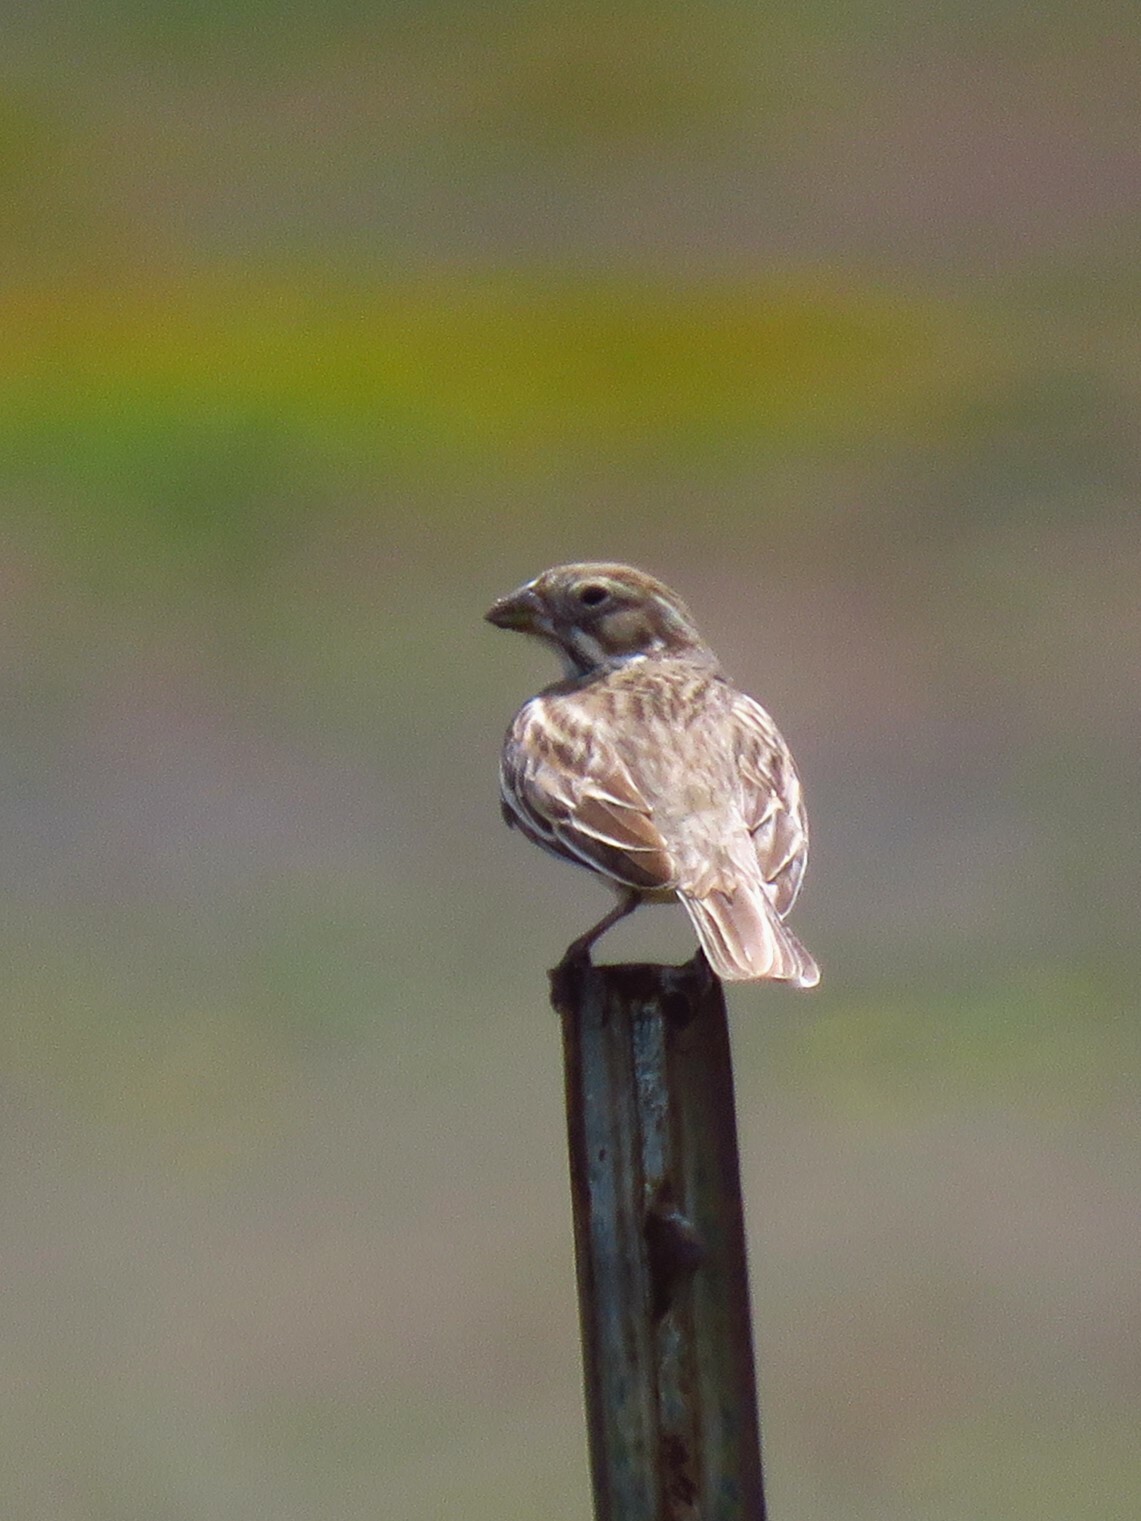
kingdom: Animalia
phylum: Chordata
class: Aves
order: Passeriformes
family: Passerellidae
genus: Calamospiza
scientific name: Calamospiza melanocorys
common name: Lark bunting
